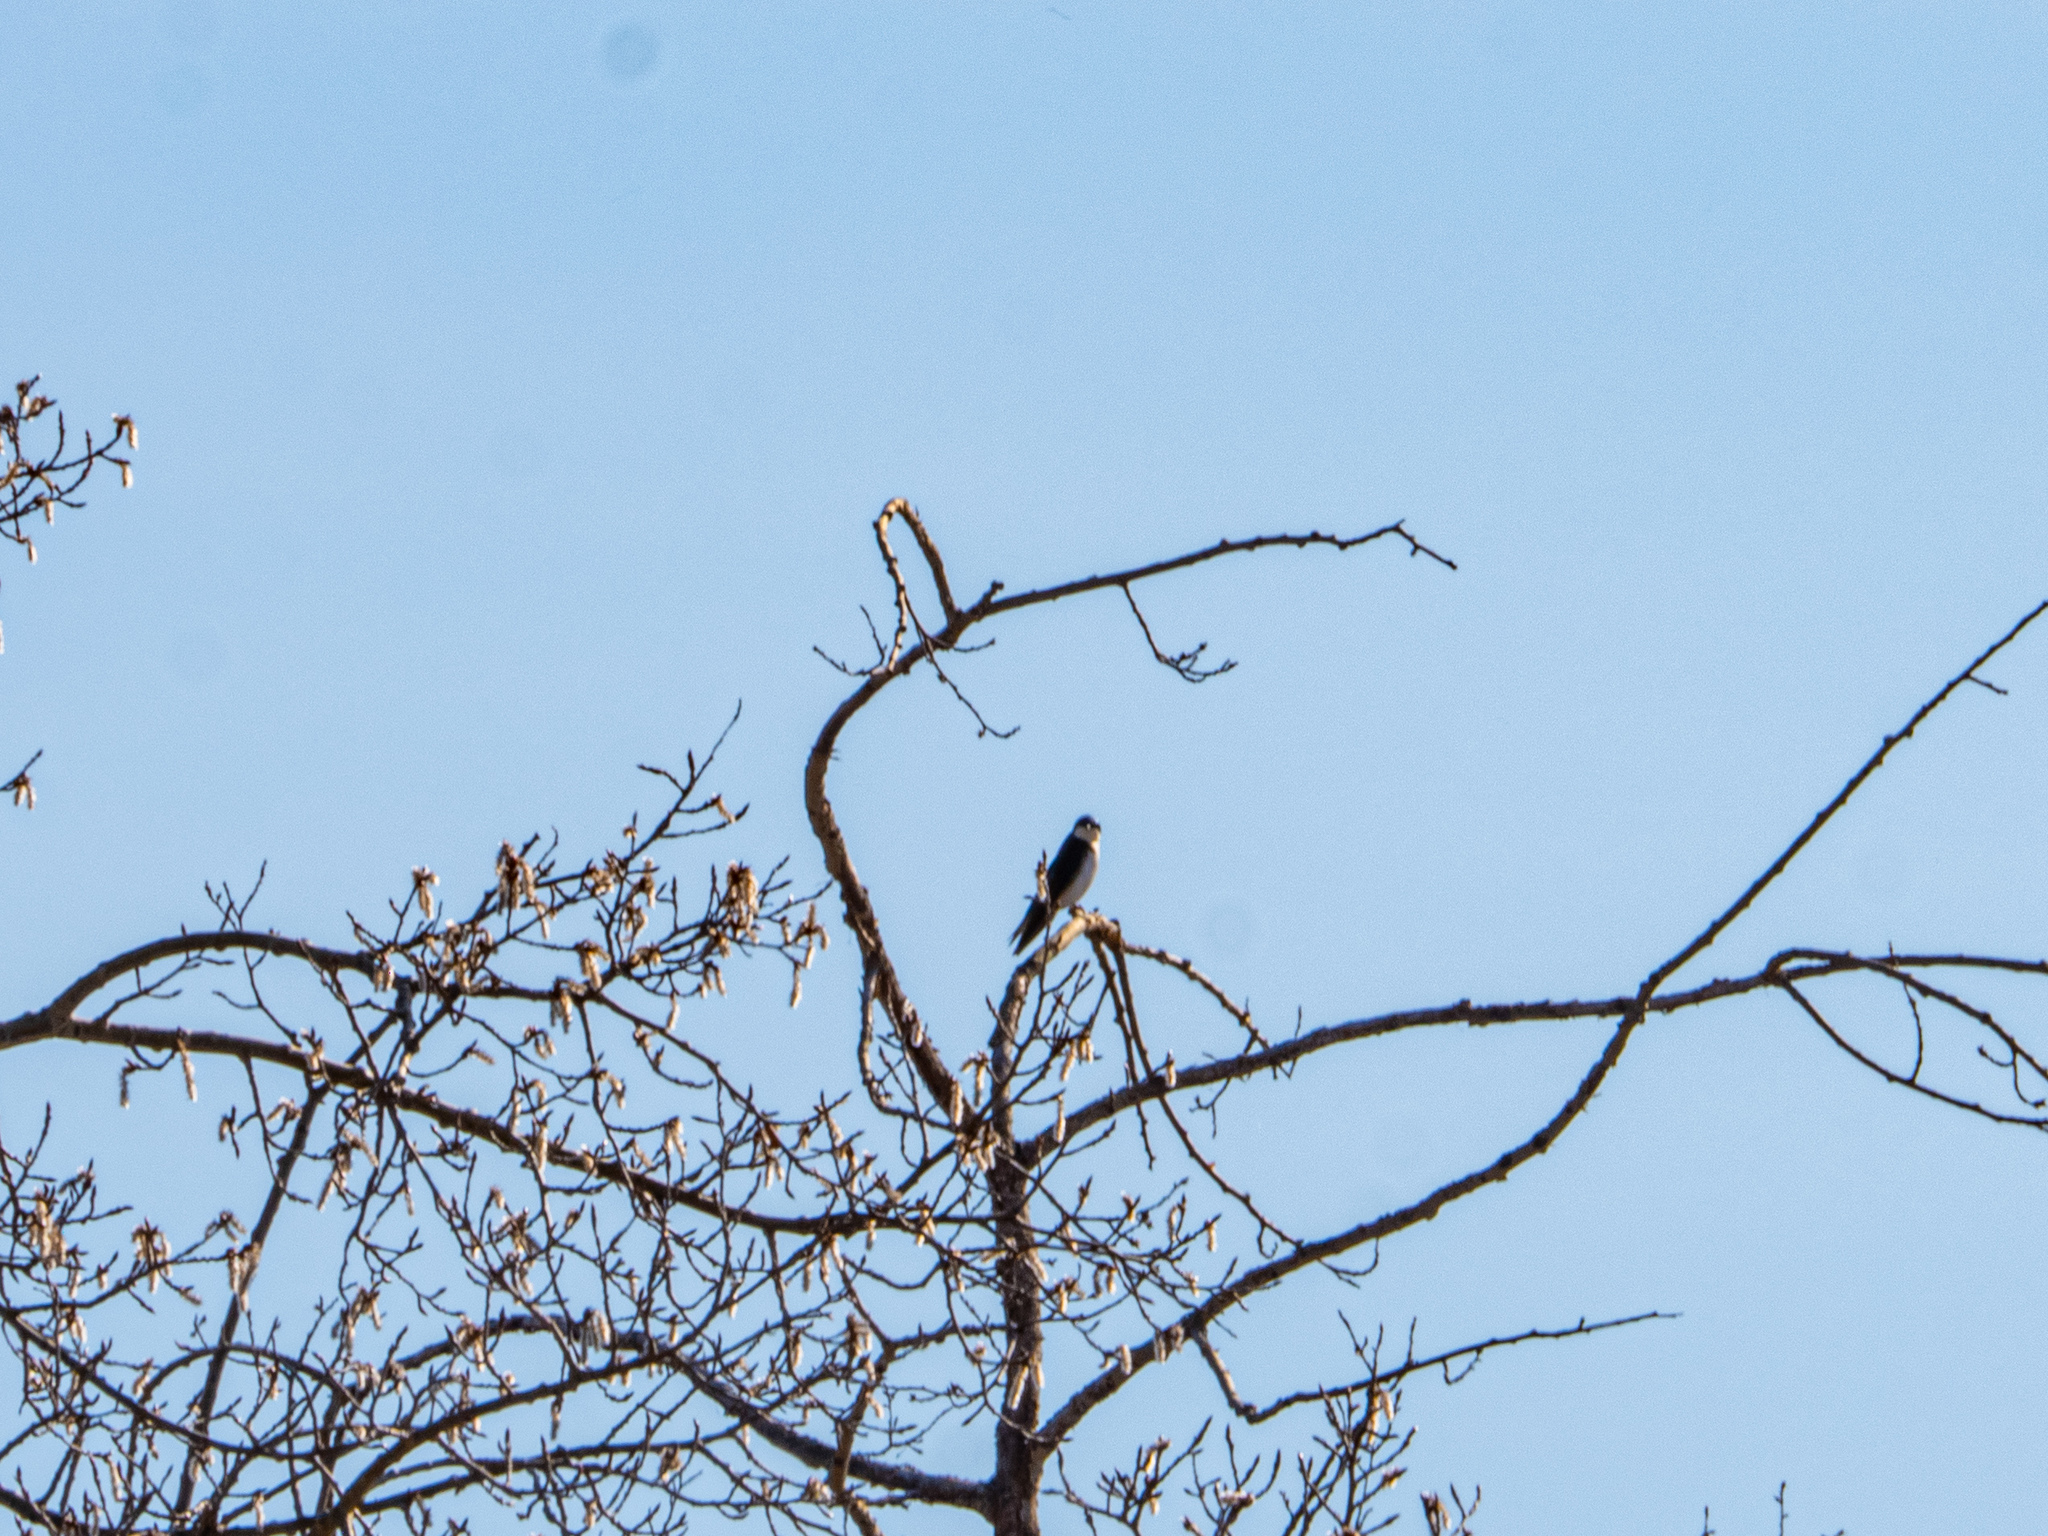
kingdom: Animalia
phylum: Chordata
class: Aves
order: Passeriformes
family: Hirundinidae
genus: Tachycineta
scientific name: Tachycineta bicolor
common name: Tree swallow
